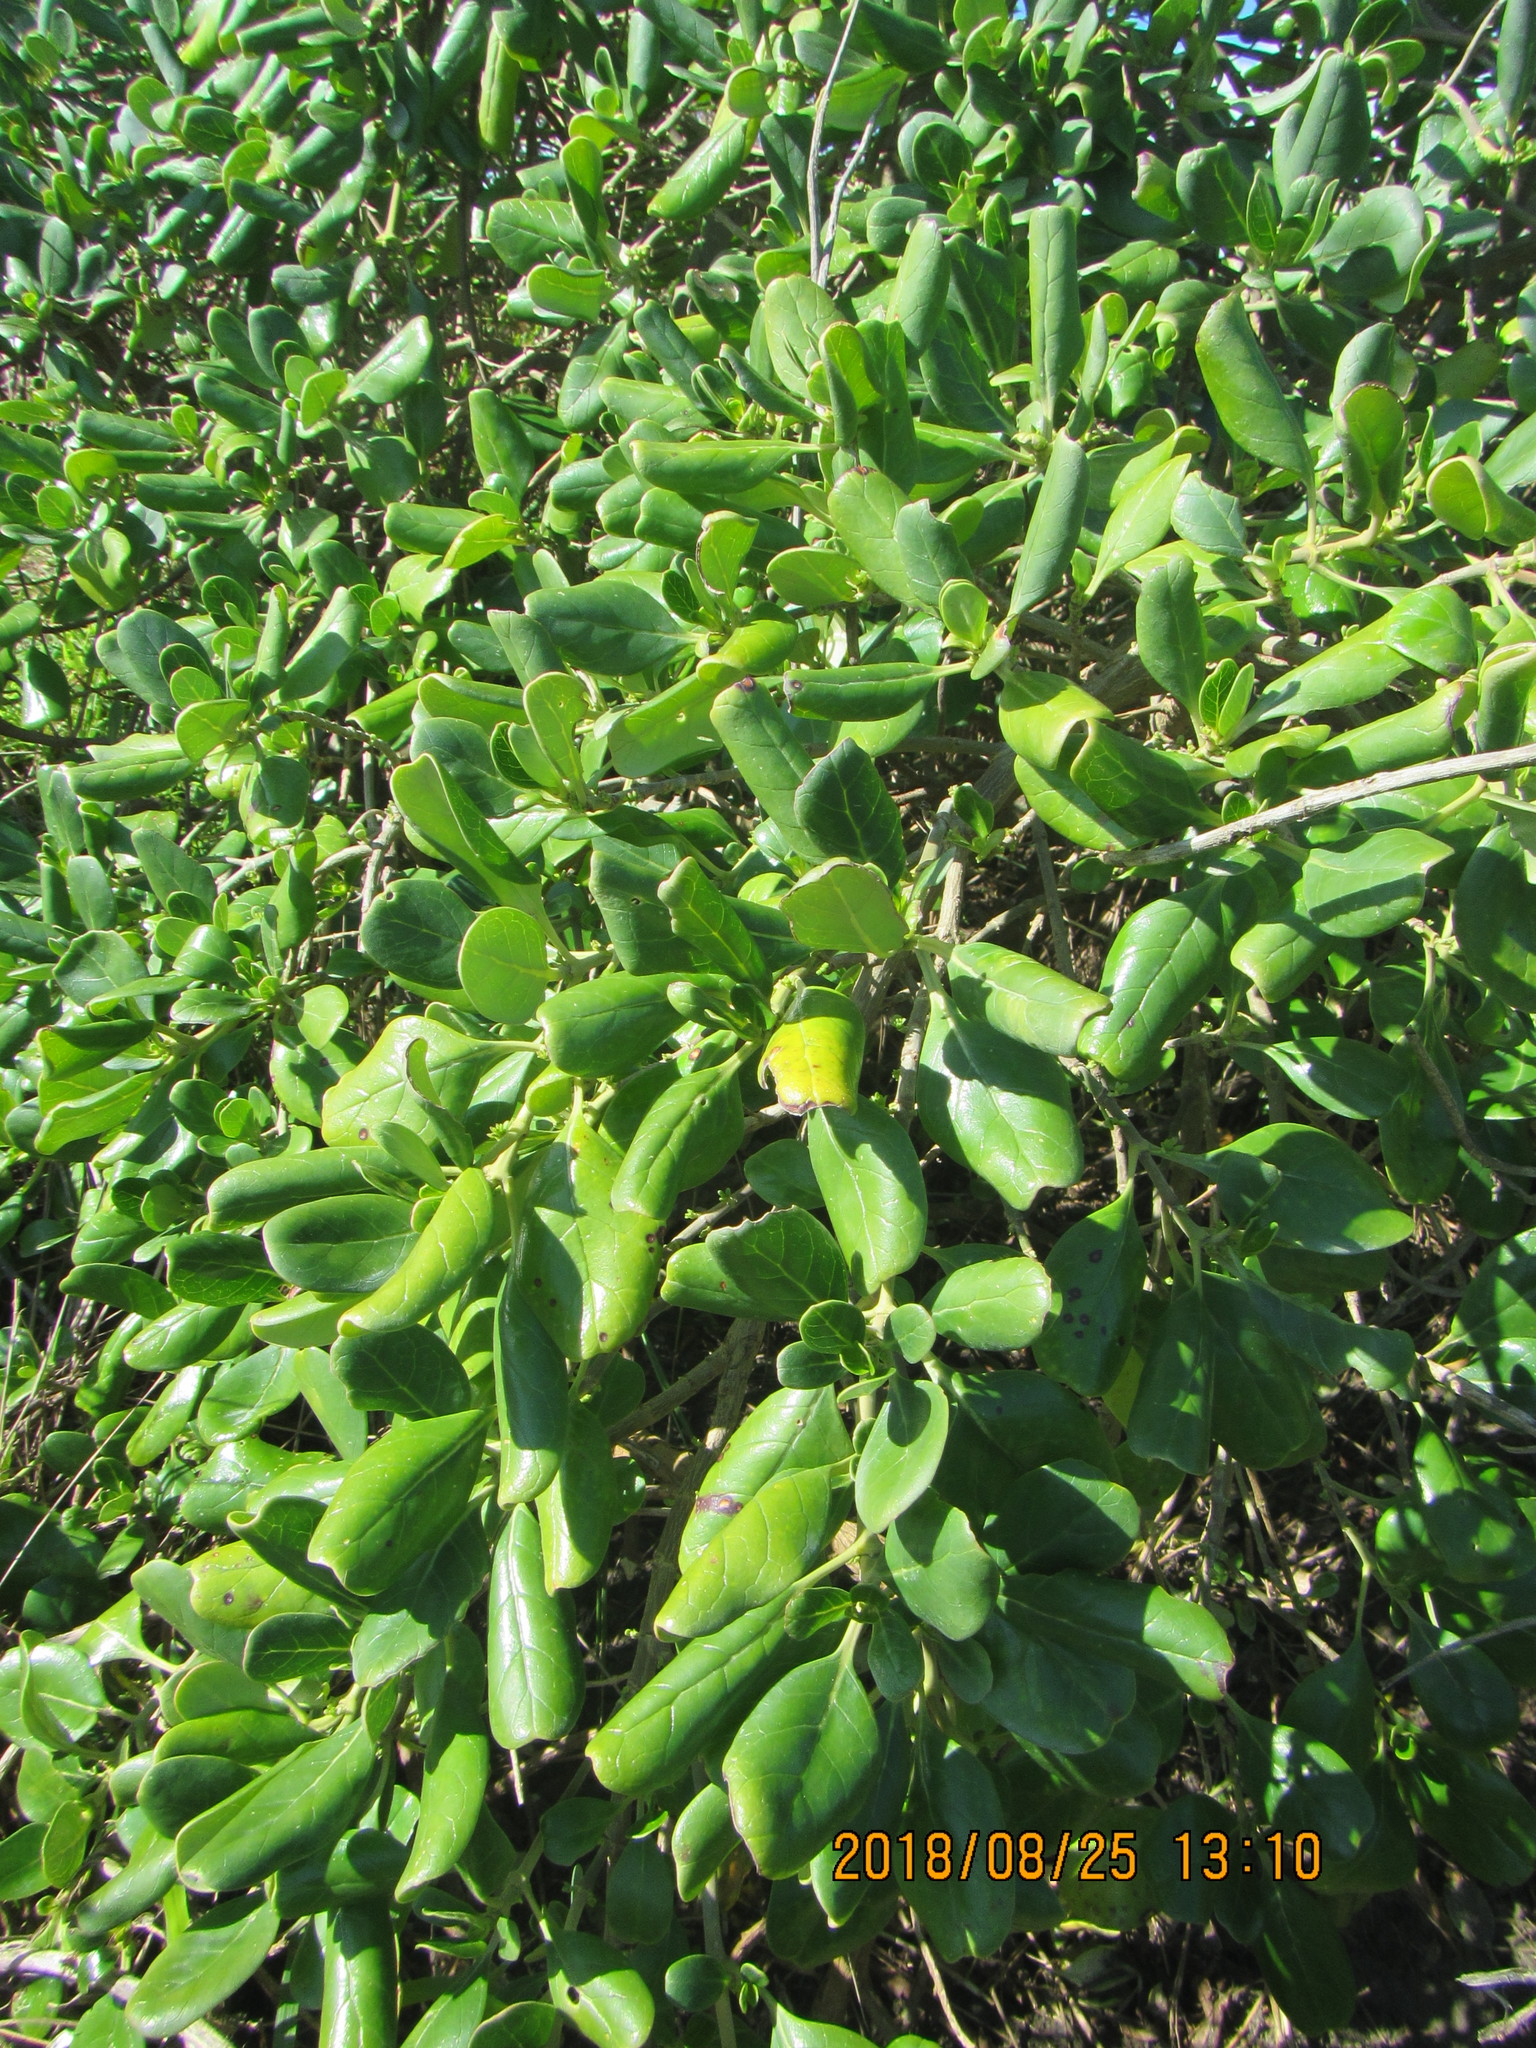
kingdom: Plantae
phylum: Tracheophyta
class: Magnoliopsida
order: Gentianales
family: Rubiaceae
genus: Coprosma
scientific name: Coprosma repens
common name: Tree bedstraw
